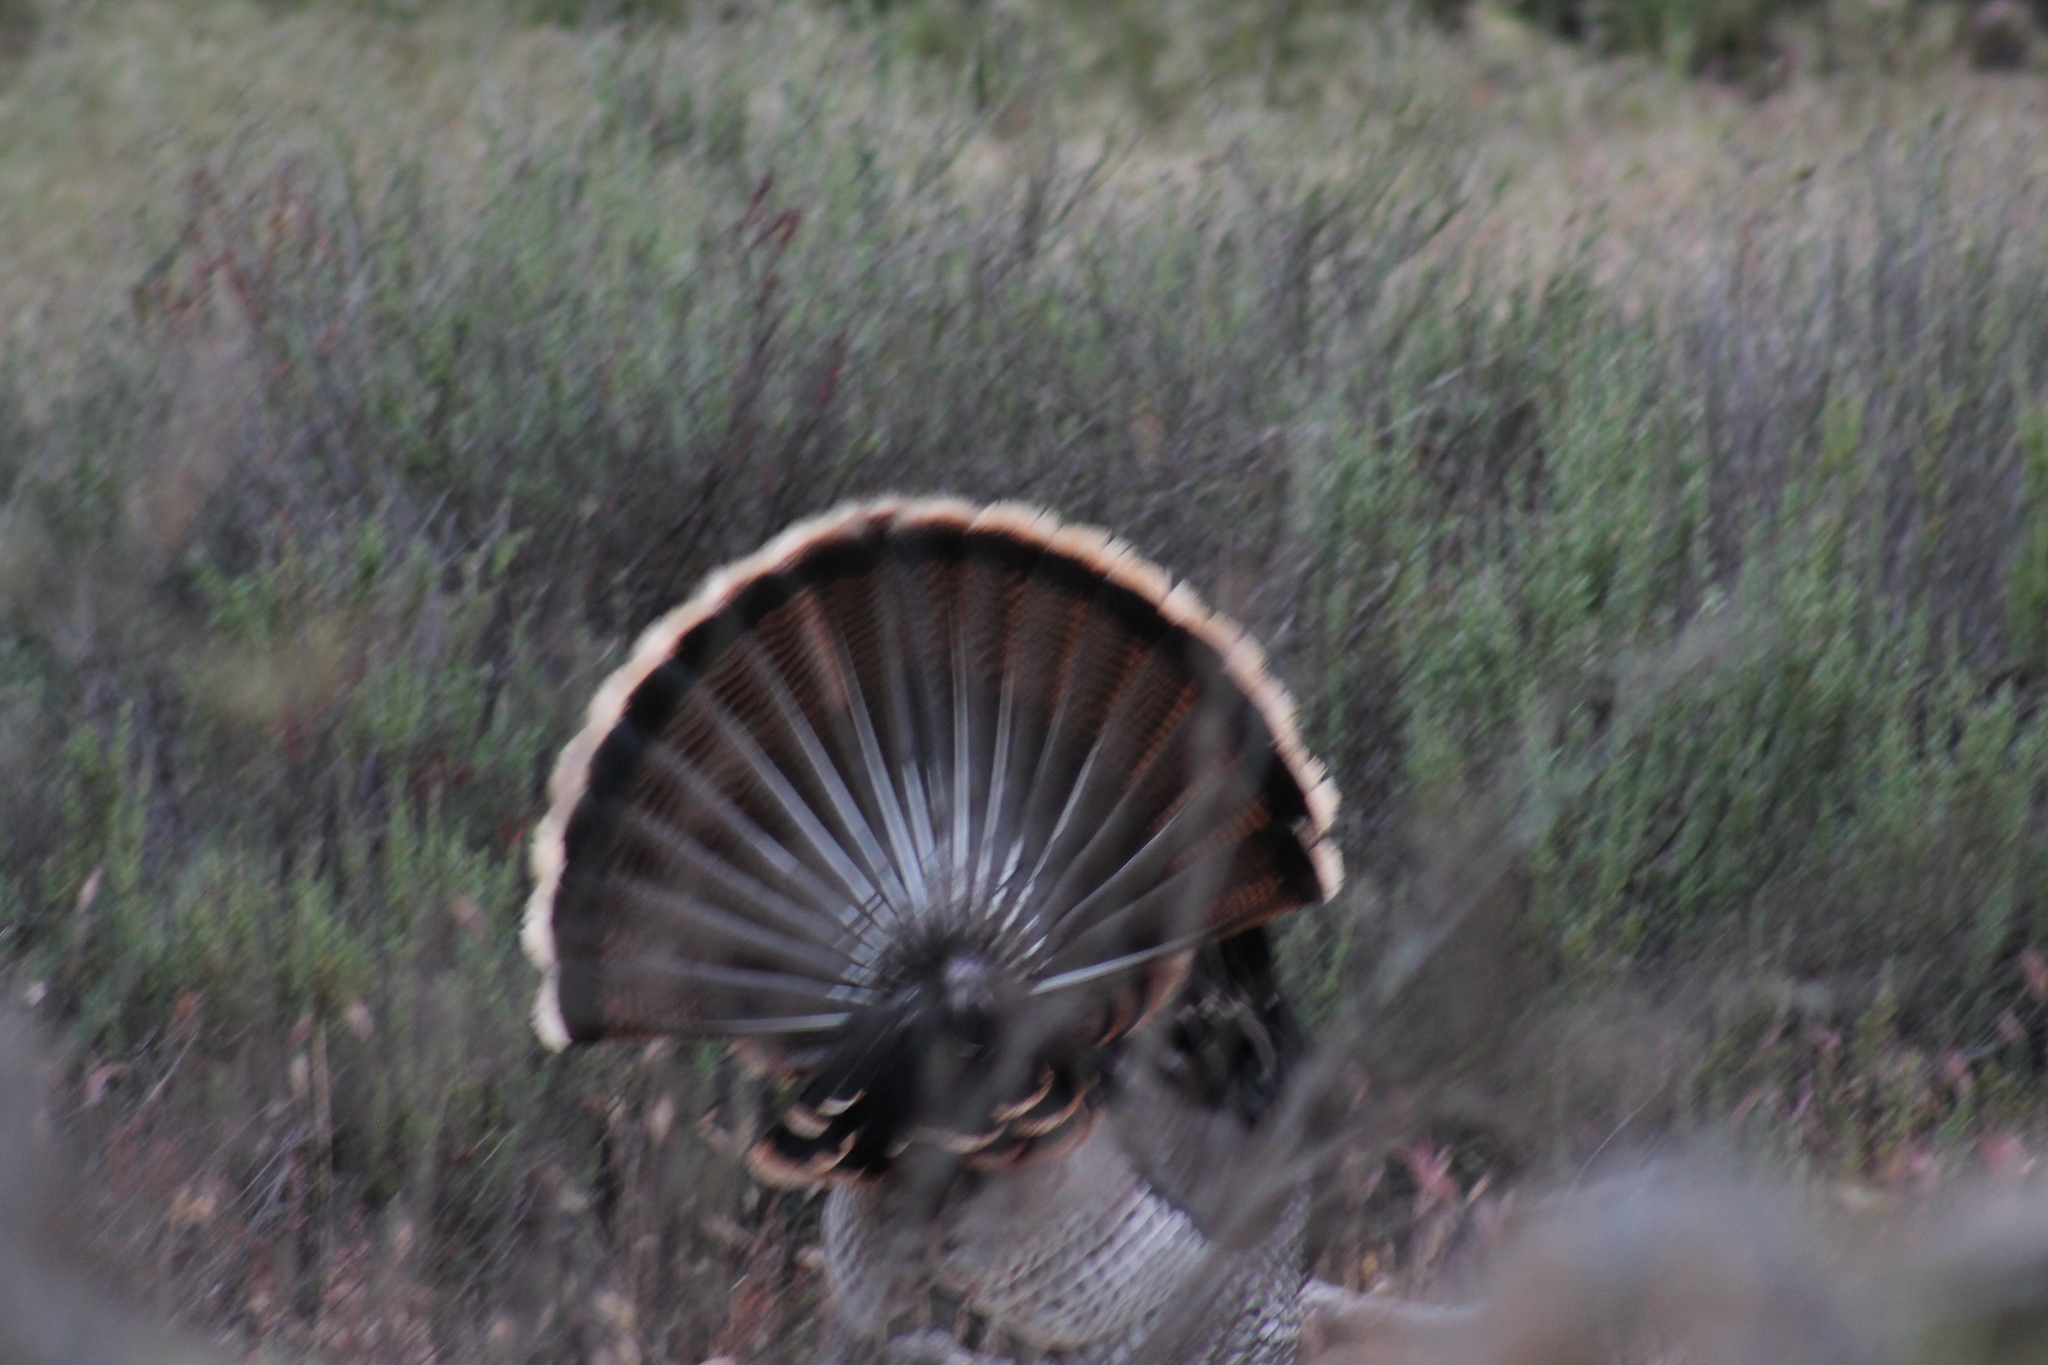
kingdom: Animalia
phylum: Chordata
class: Aves
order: Galliformes
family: Phasianidae
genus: Meleagris
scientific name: Meleagris gallopavo
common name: Wild turkey
